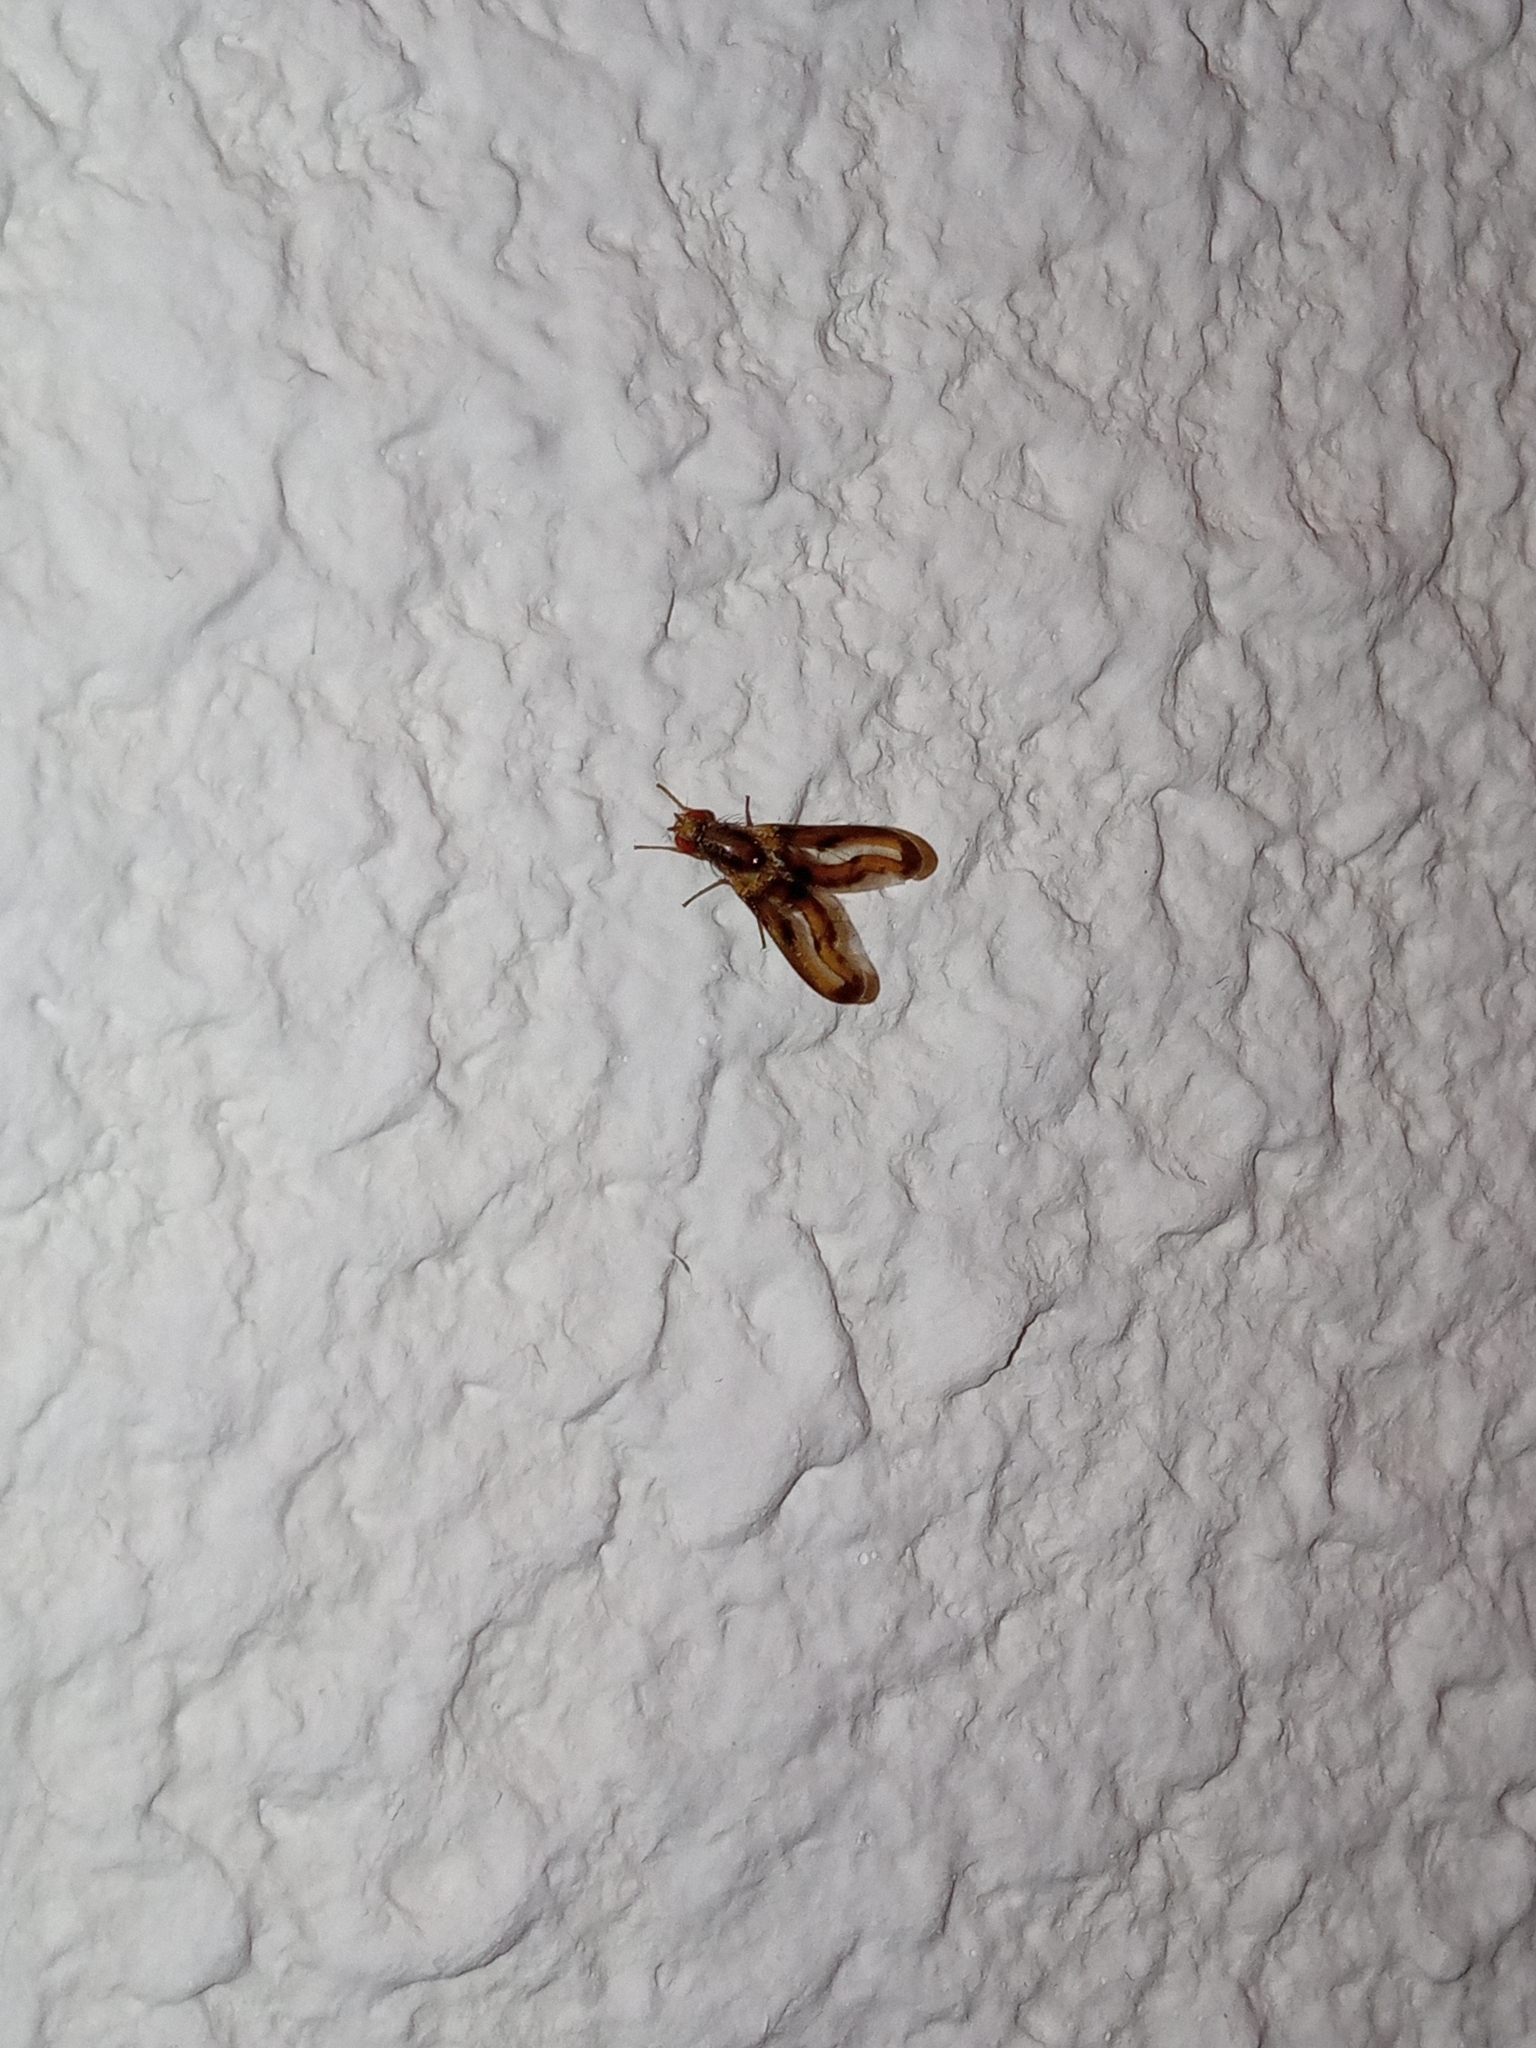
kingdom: Animalia
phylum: Arthropoda
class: Insecta
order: Diptera
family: Pallopteridae
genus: Toxonevra
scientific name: Toxonevra muliebris
